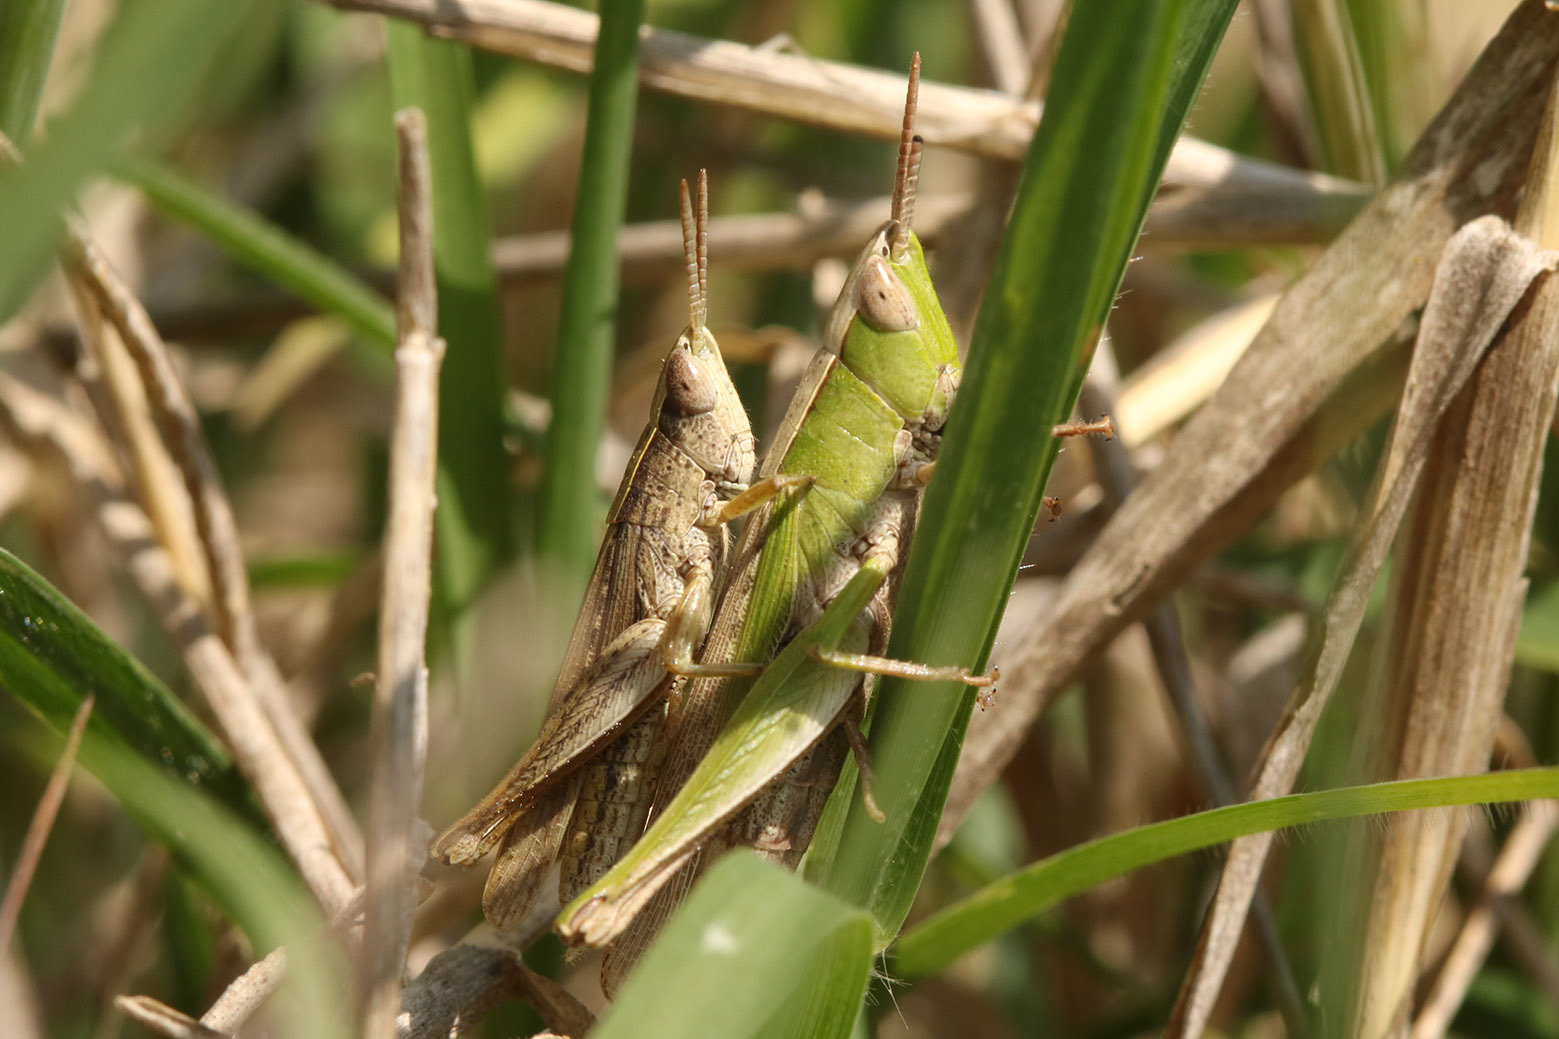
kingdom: Animalia
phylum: Arthropoda
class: Insecta
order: Orthoptera
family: Acrididae
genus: Laplatacris
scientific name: Laplatacris dispar
